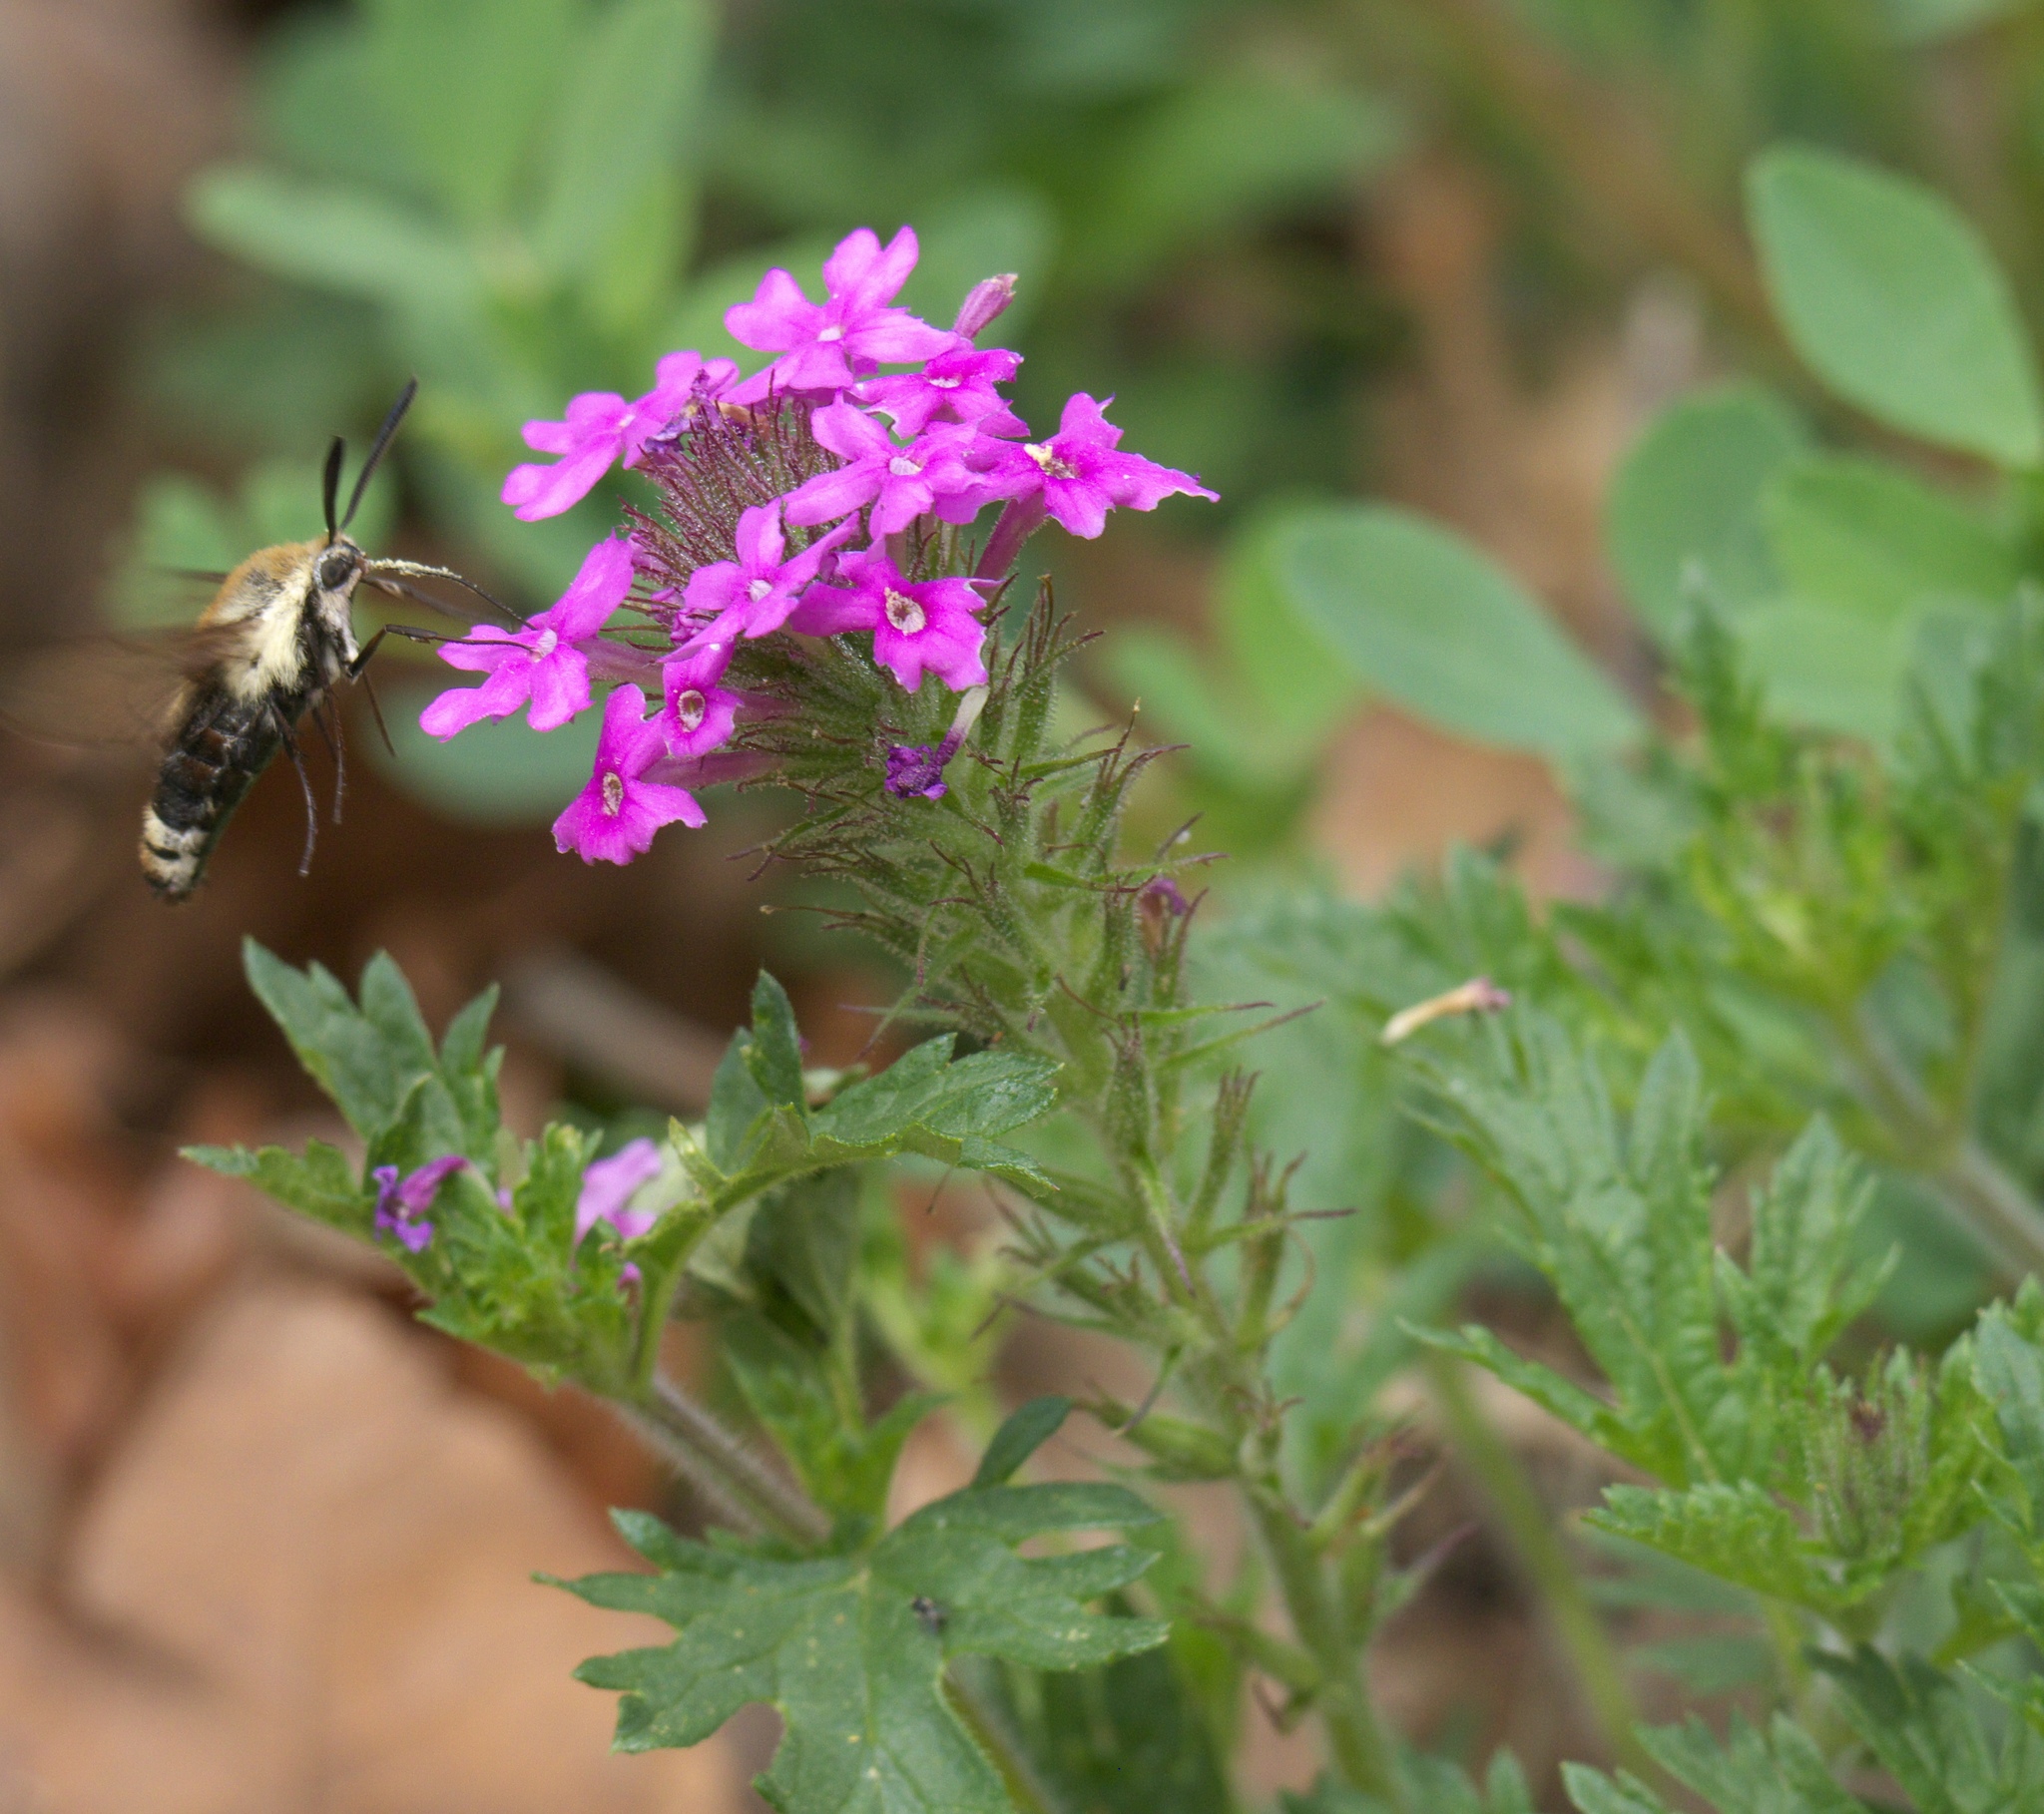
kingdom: Plantae
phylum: Tracheophyta
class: Magnoliopsida
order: Lamiales
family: Verbenaceae
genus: Verbena
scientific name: Verbena canadensis
